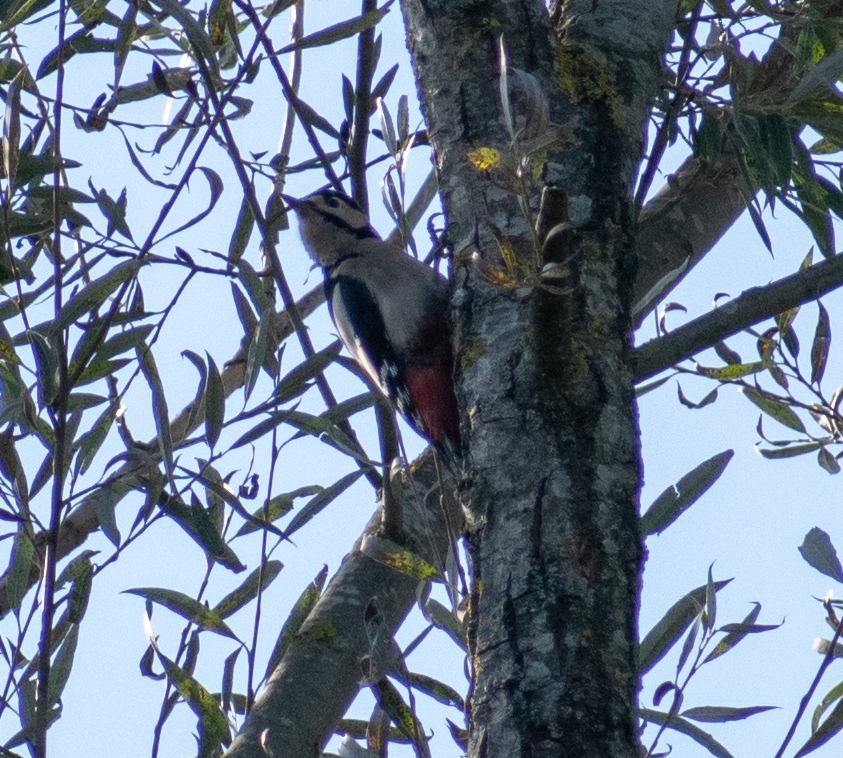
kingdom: Animalia
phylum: Chordata
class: Aves
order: Piciformes
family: Picidae
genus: Dendrocopos
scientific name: Dendrocopos major
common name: Great spotted woodpecker
